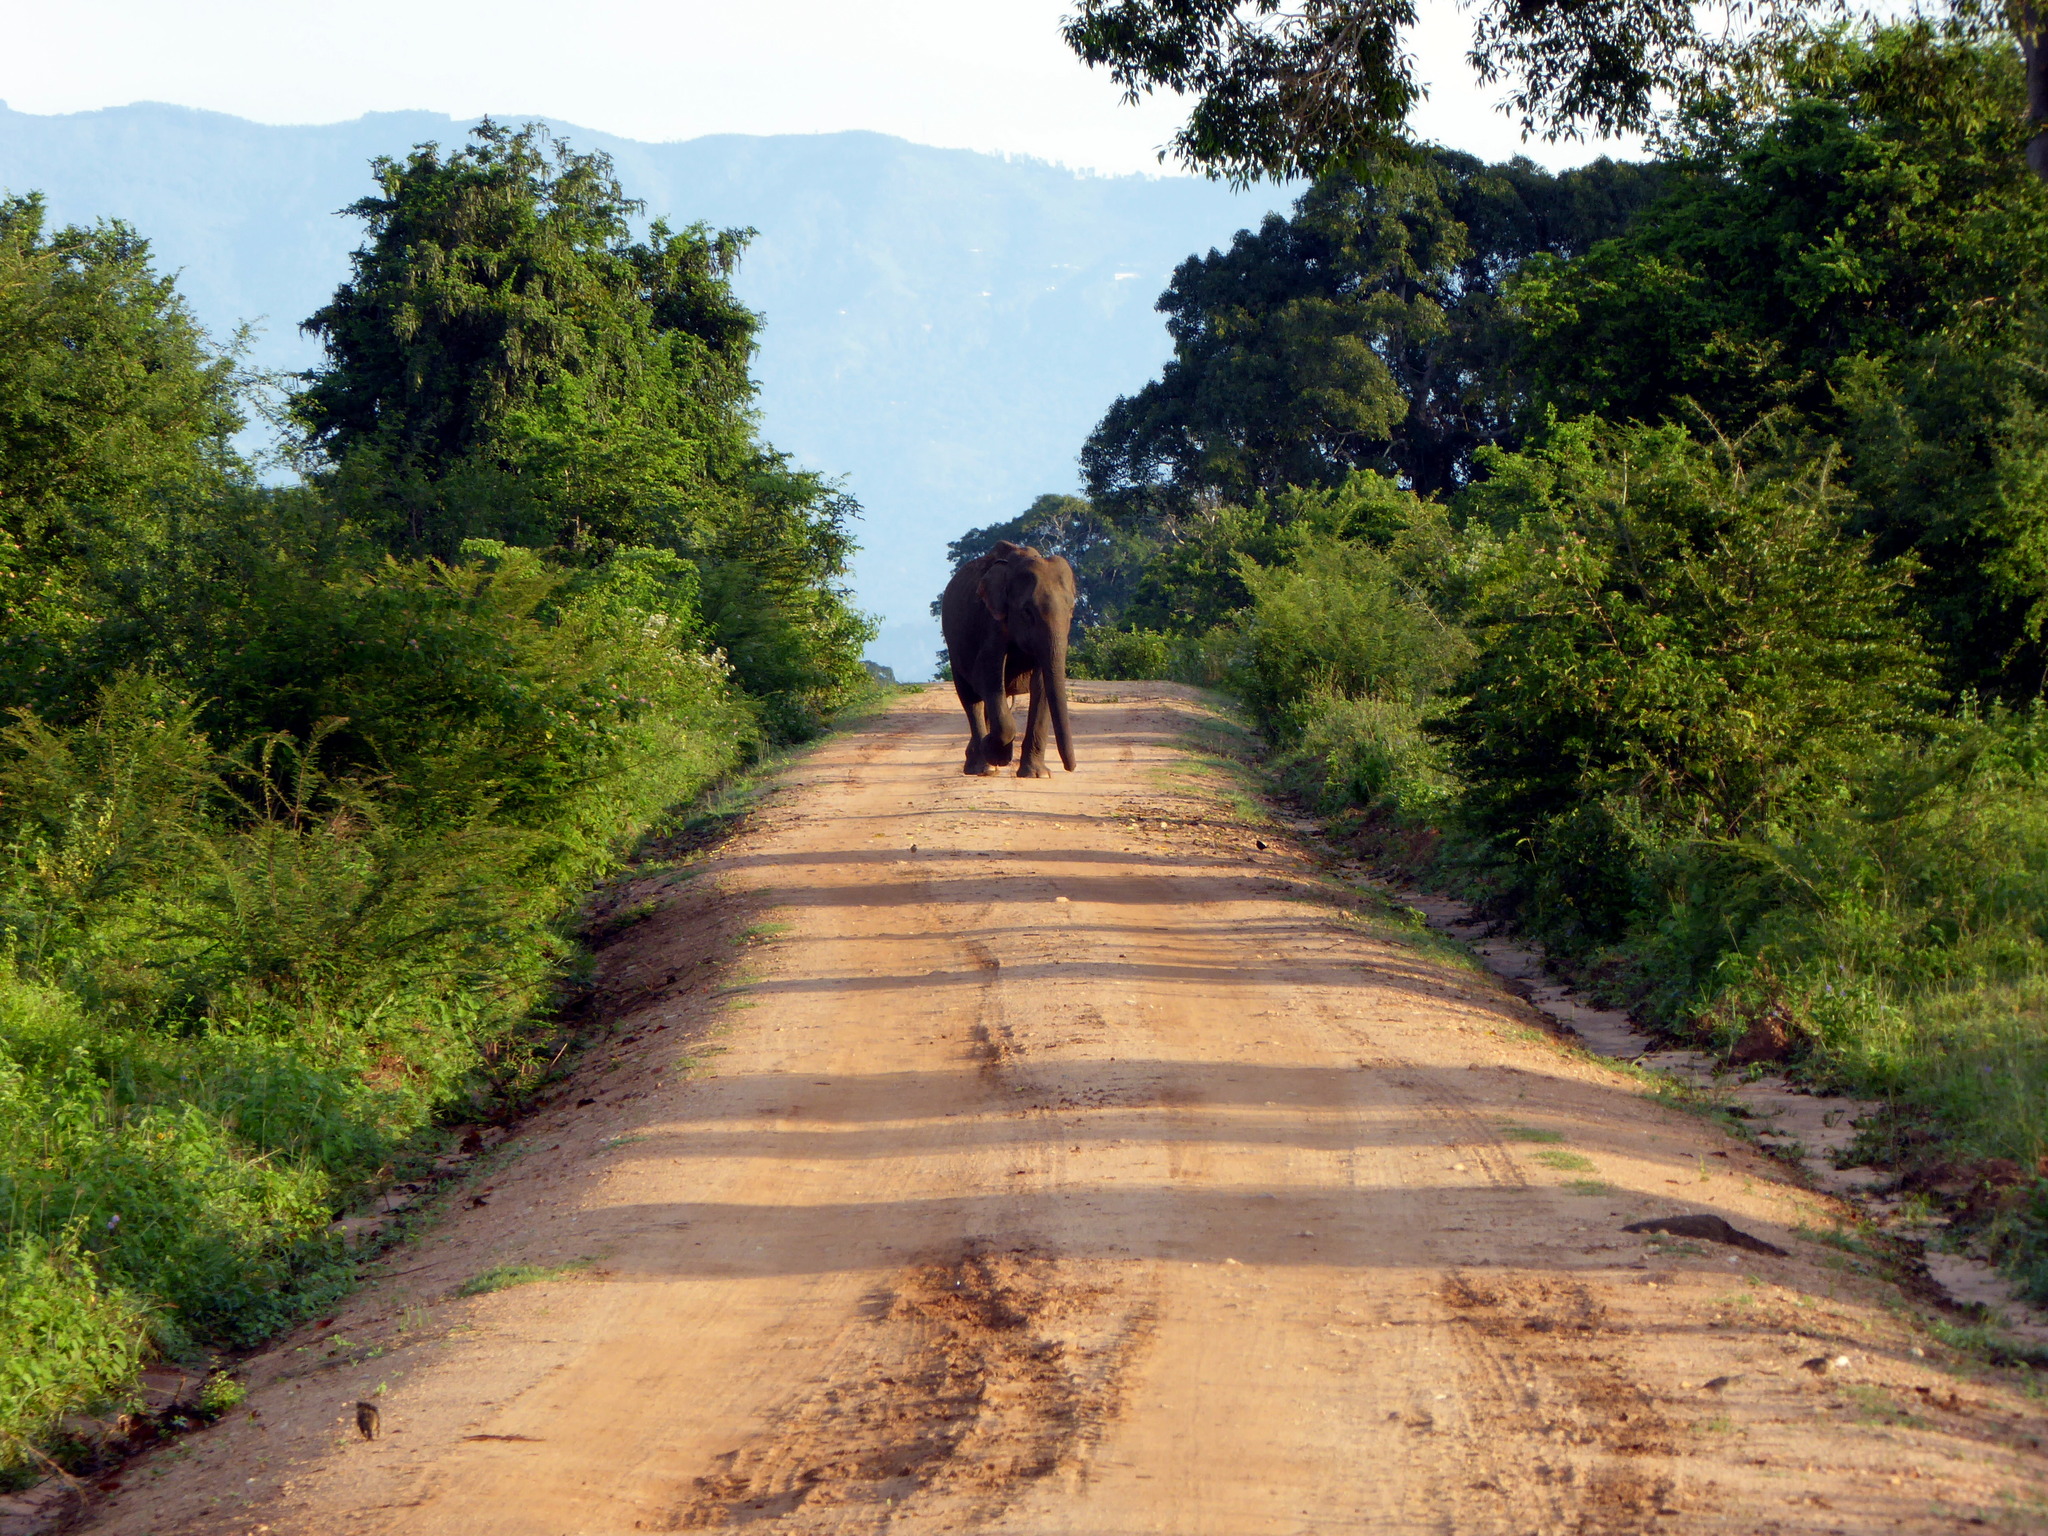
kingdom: Animalia
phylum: Chordata
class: Mammalia
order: Proboscidea
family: Elephantidae
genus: Elephas
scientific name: Elephas maximus
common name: Asian elephant
